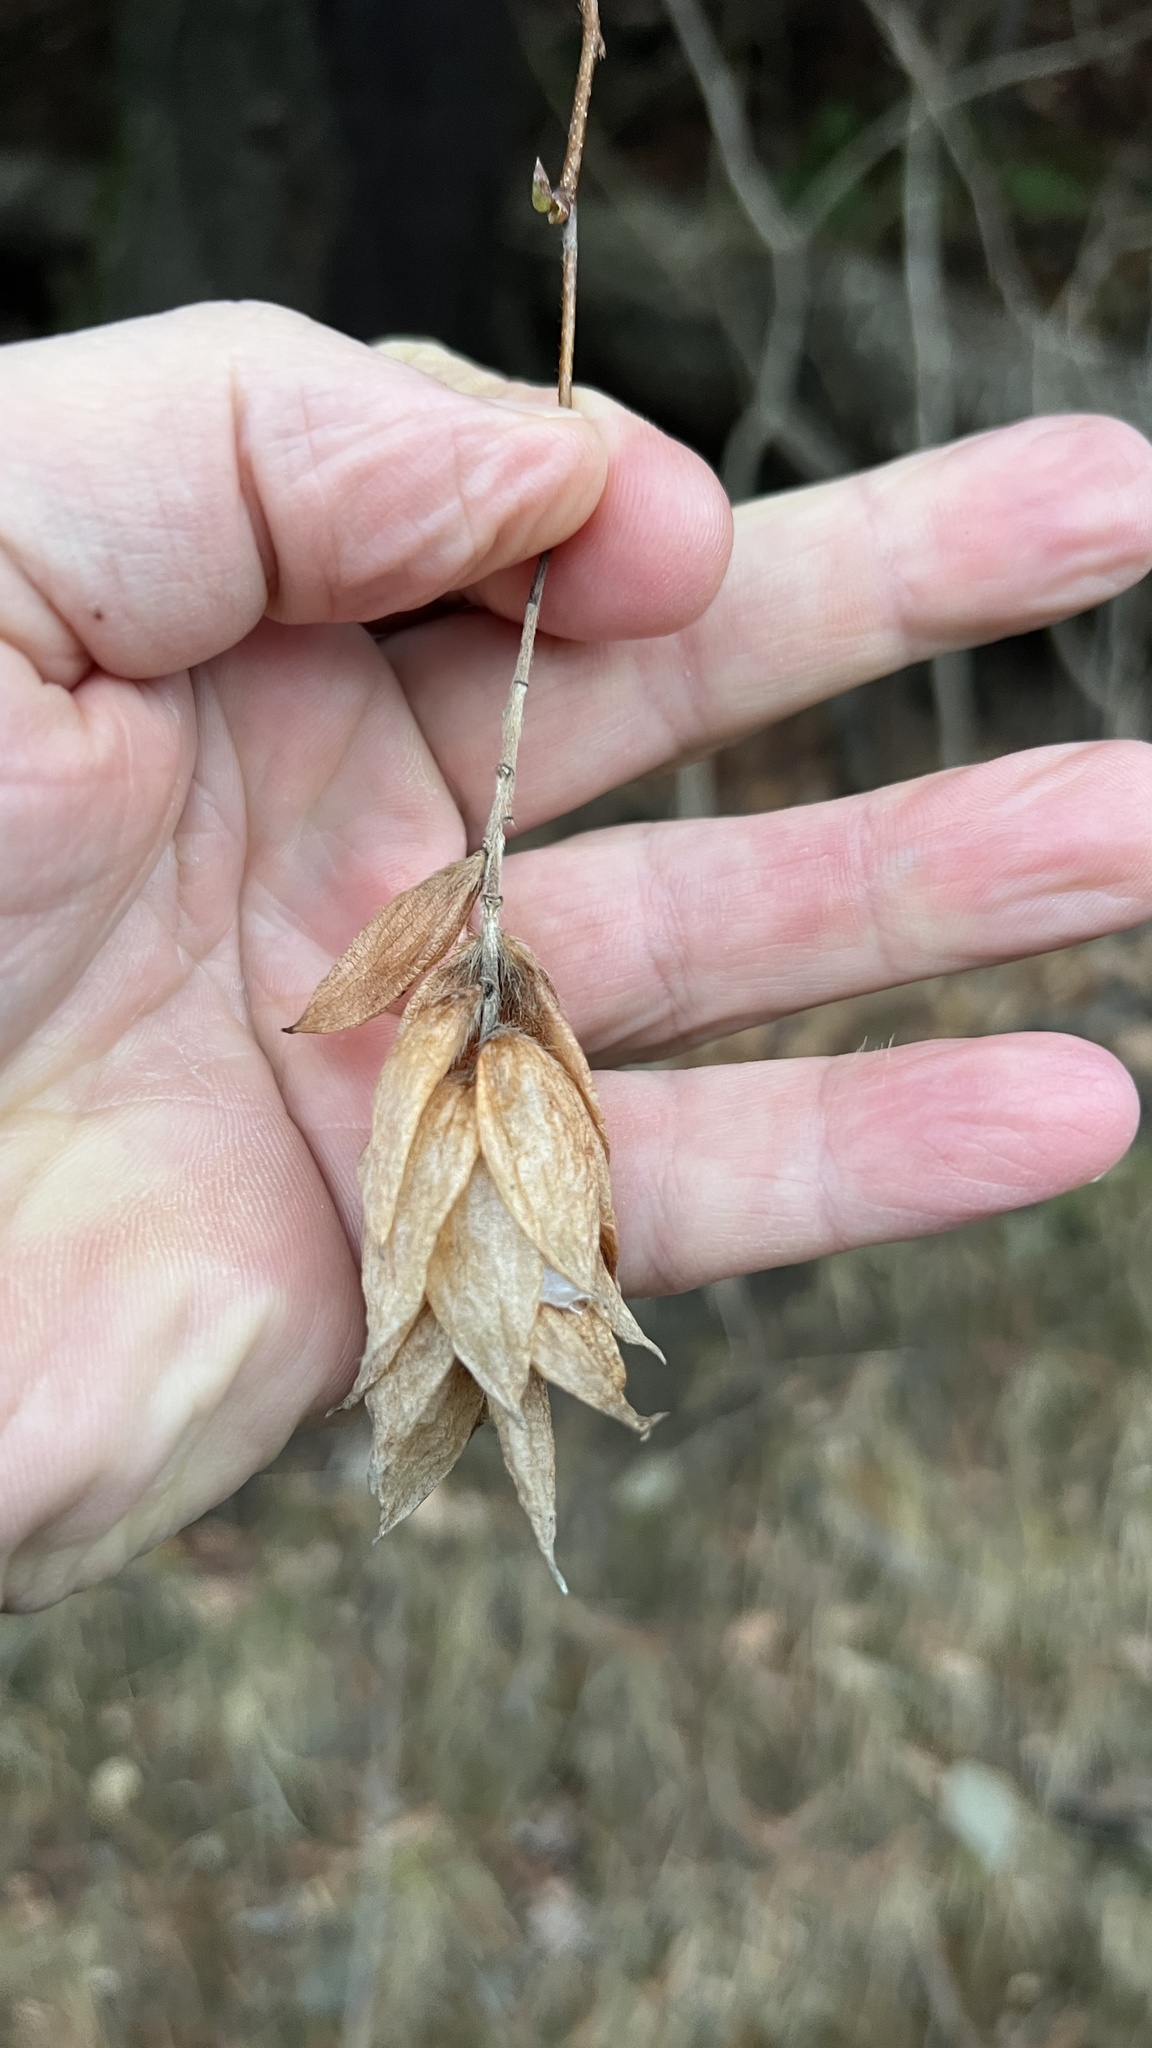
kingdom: Plantae
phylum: Tracheophyta
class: Magnoliopsida
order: Fagales
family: Betulaceae
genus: Ostrya
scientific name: Ostrya virginiana
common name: Ironwood
